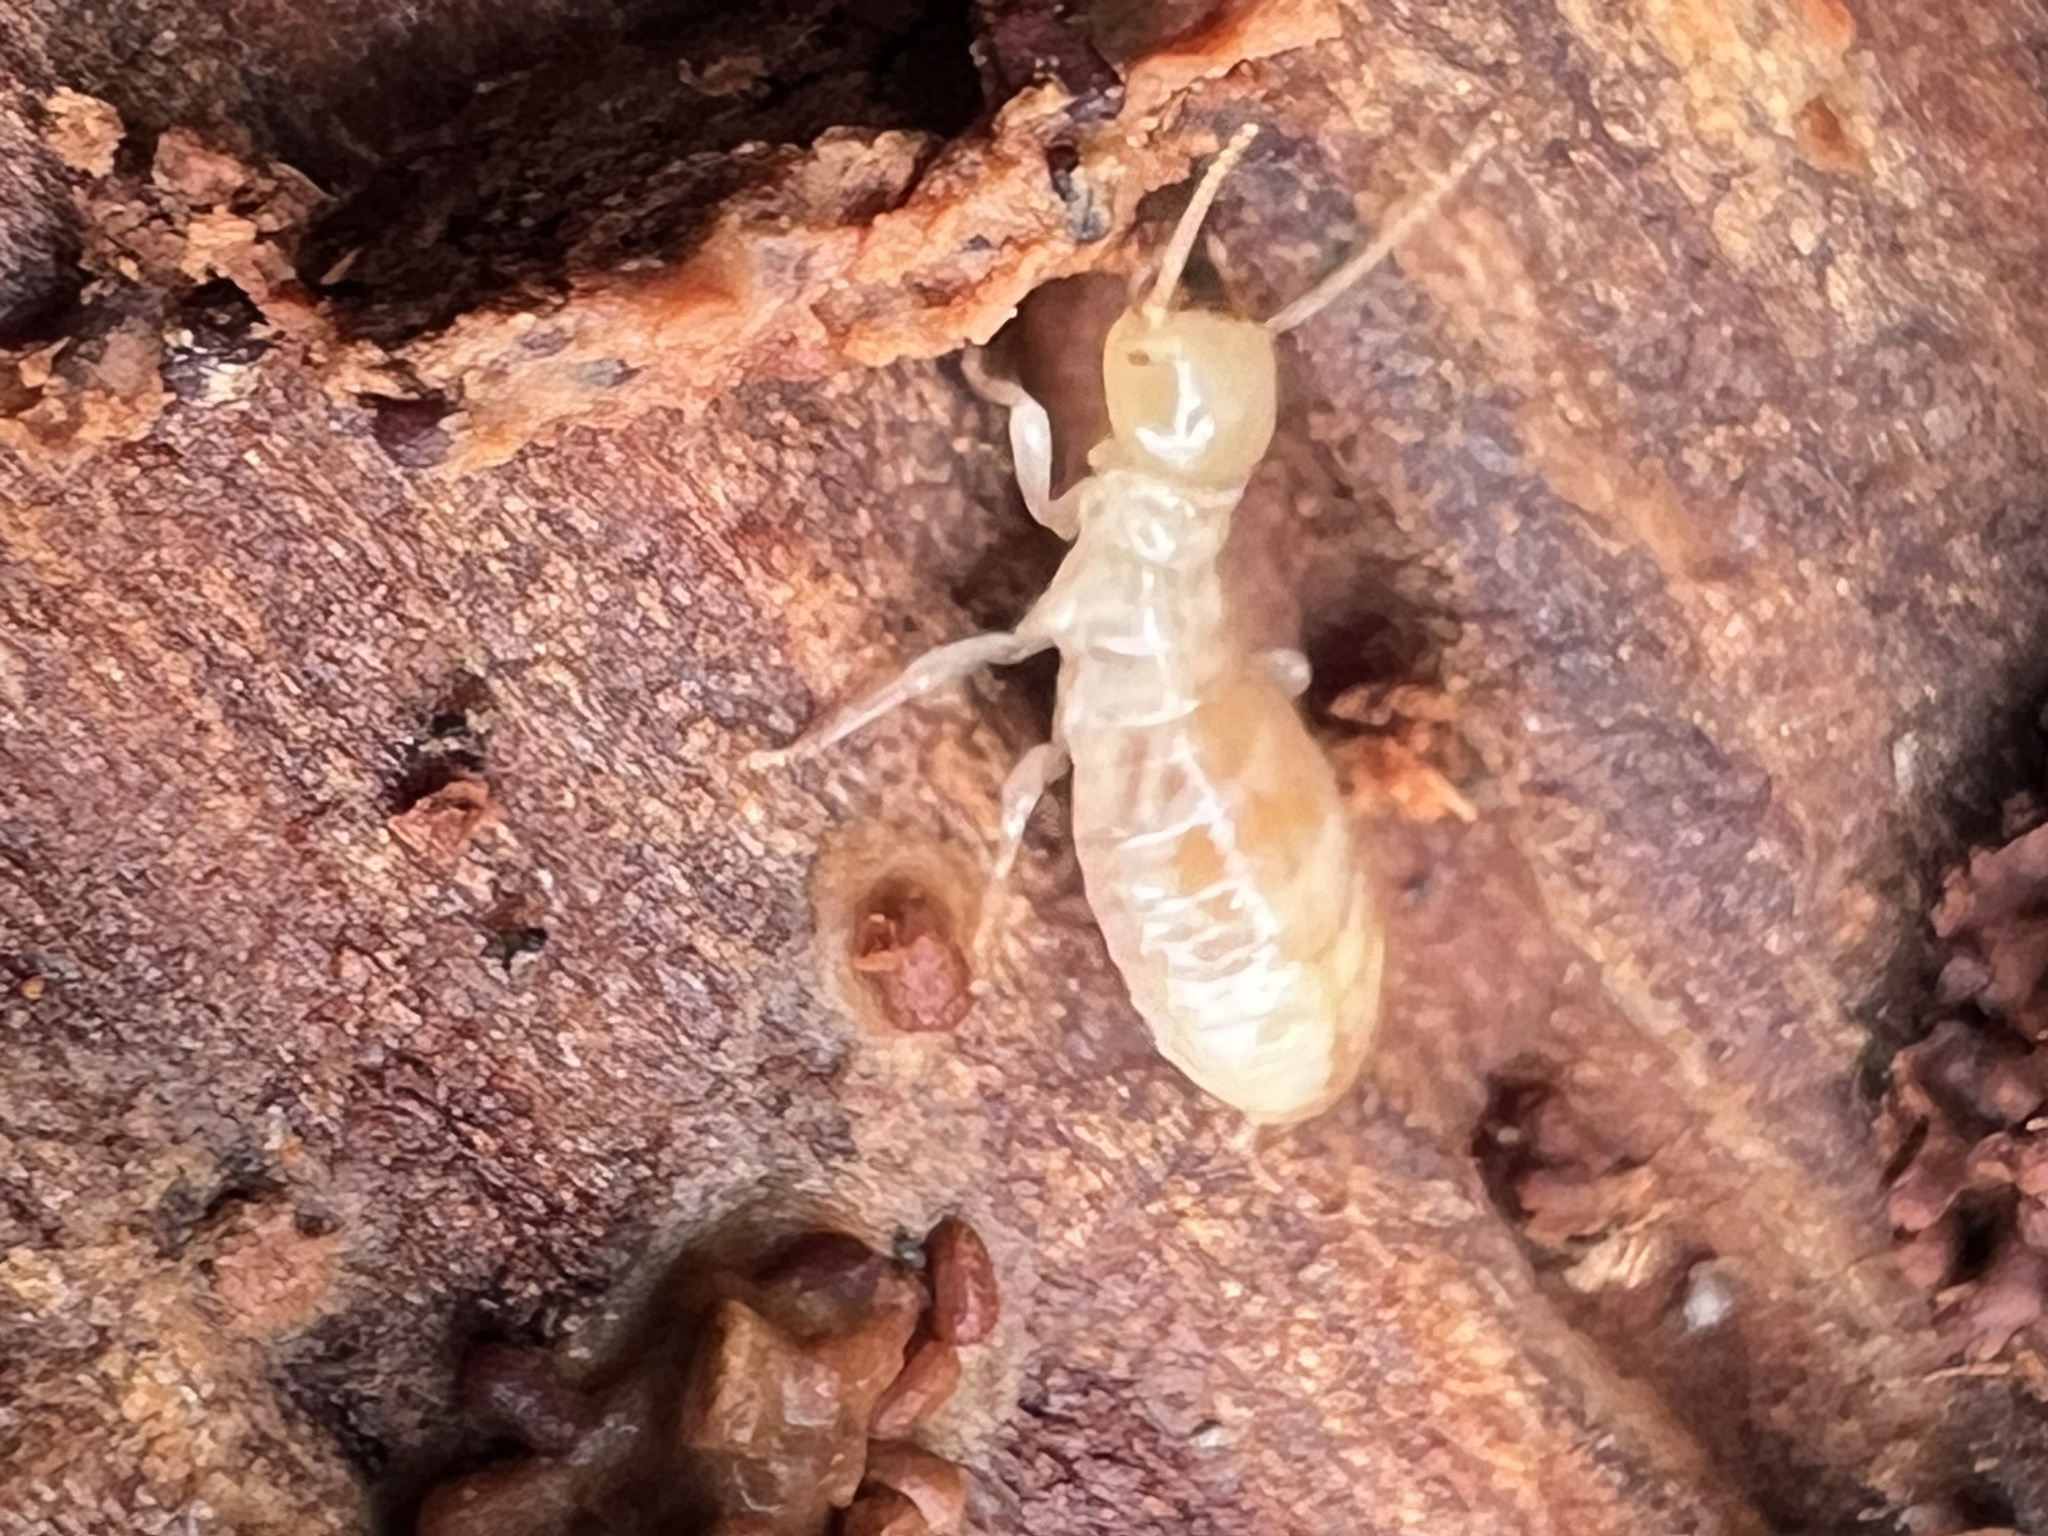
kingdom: Animalia
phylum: Arthropoda
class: Insecta
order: Blattodea
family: Archotermopsidae
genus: Zootermopsis
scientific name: Zootermopsis
